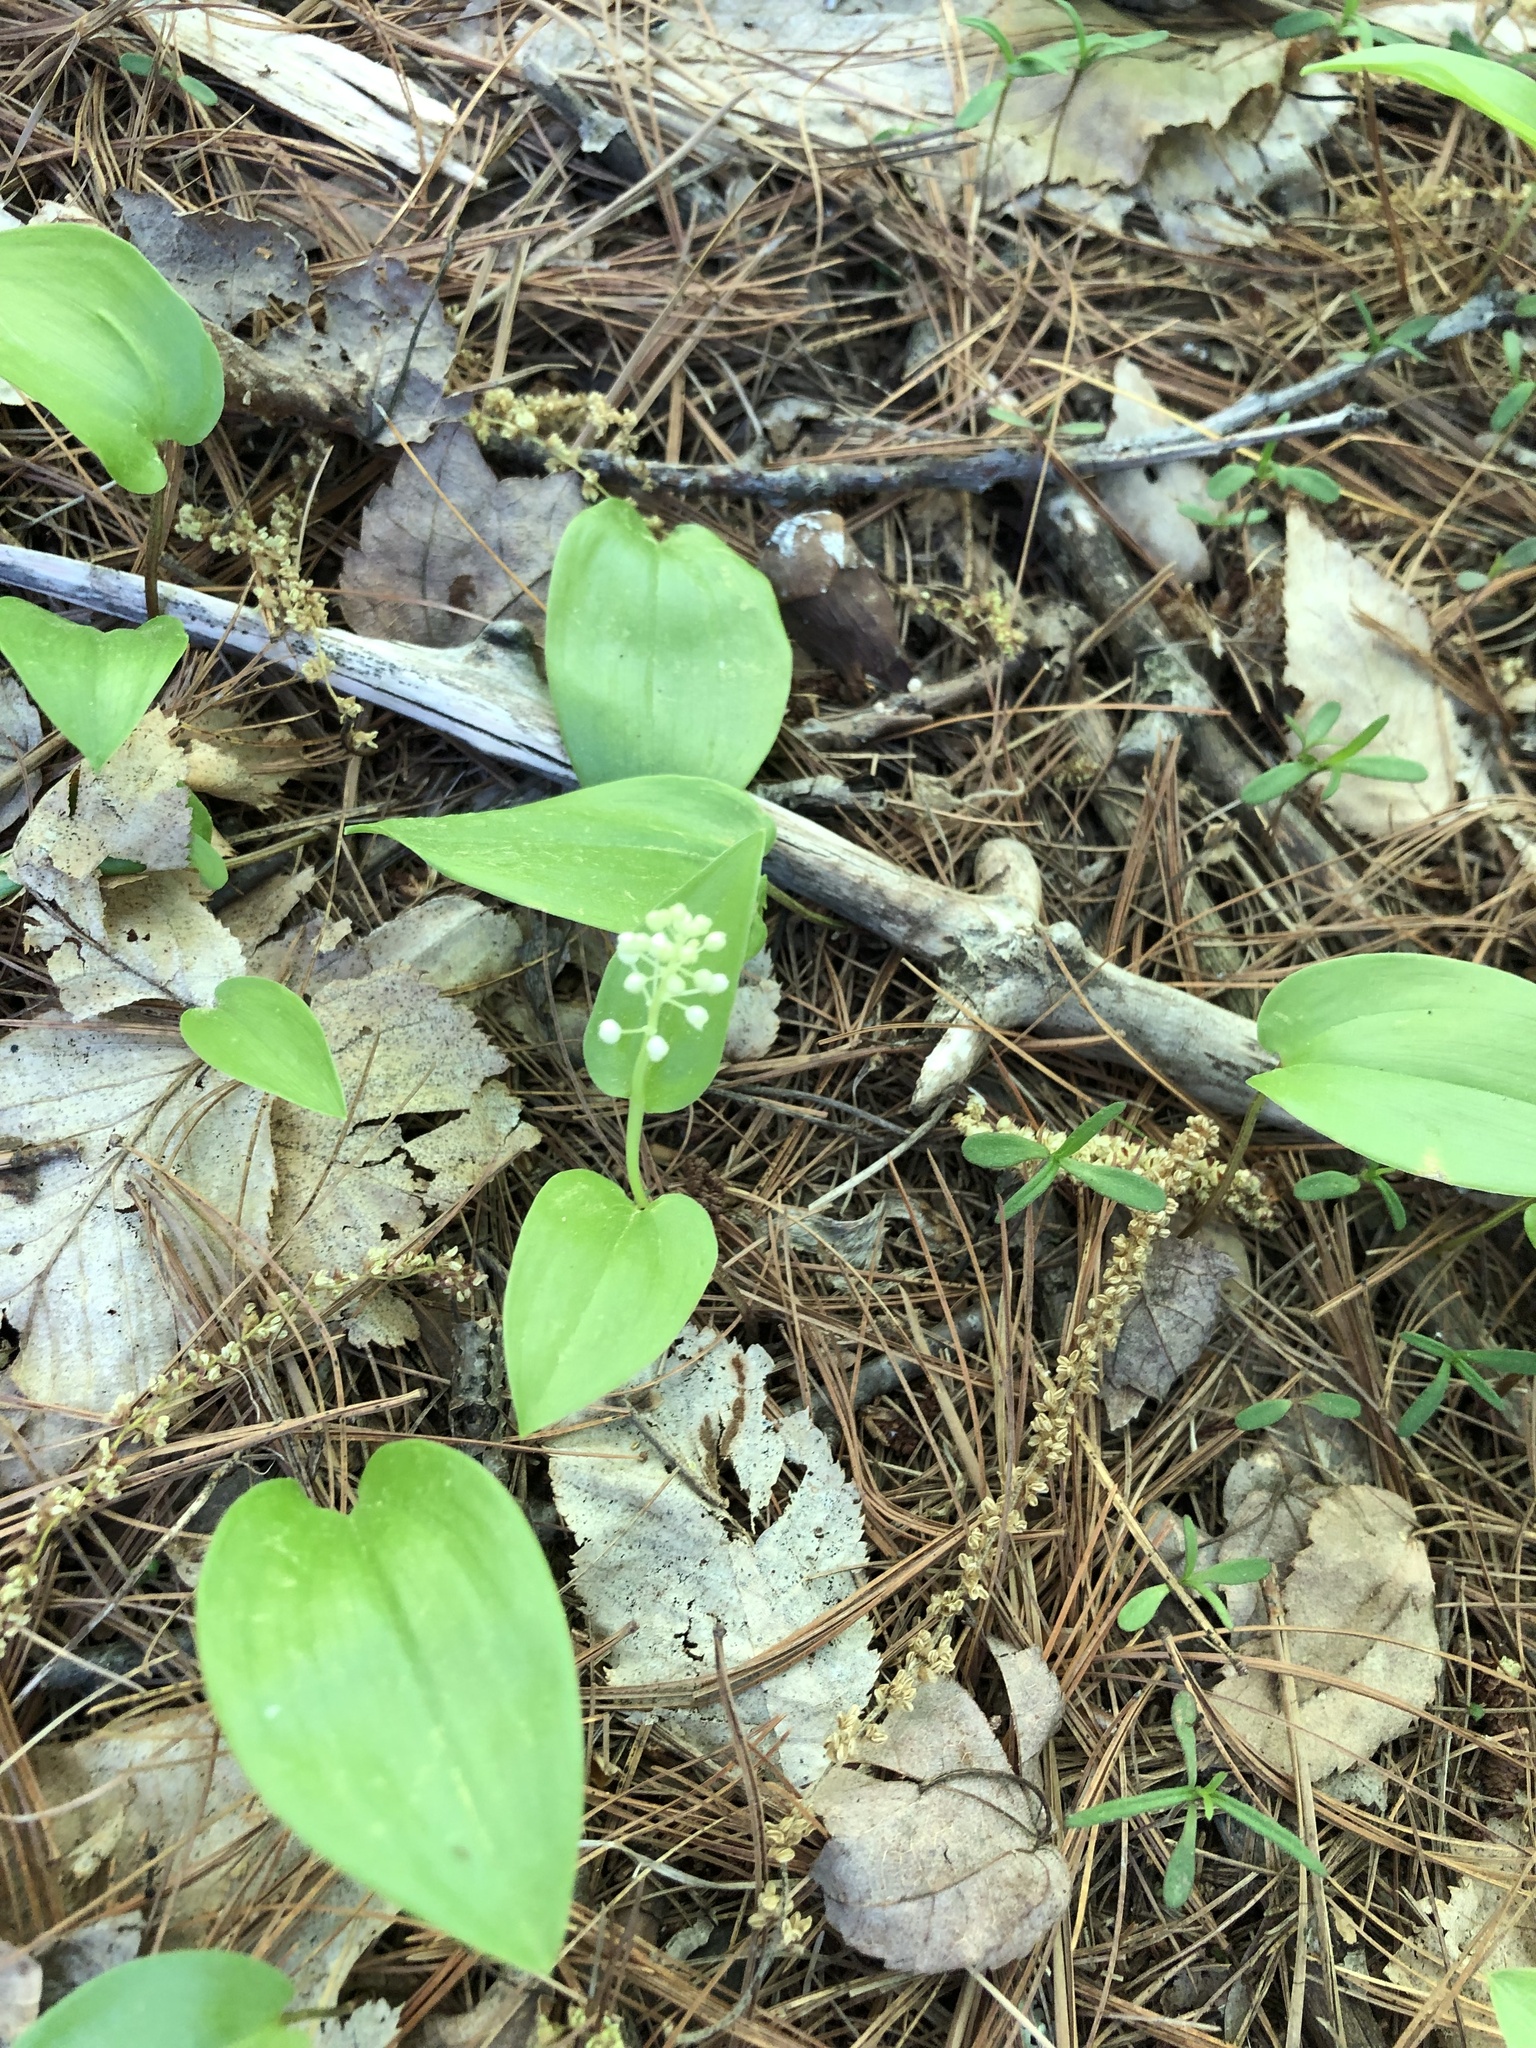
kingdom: Plantae
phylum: Tracheophyta
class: Liliopsida
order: Asparagales
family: Asparagaceae
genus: Maianthemum
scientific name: Maianthemum canadense
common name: False lily-of-the-valley
